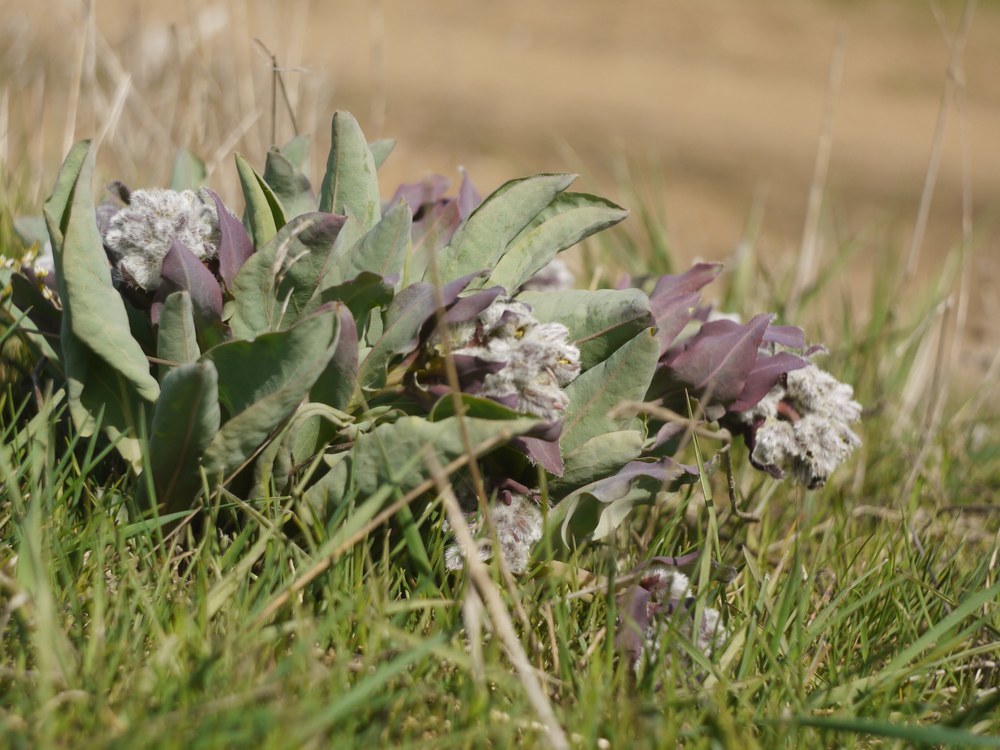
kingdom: Plantae
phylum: Tracheophyta
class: Magnoliopsida
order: Boraginales
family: Boraginaceae
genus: Rindera
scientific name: Rindera tetraspis
